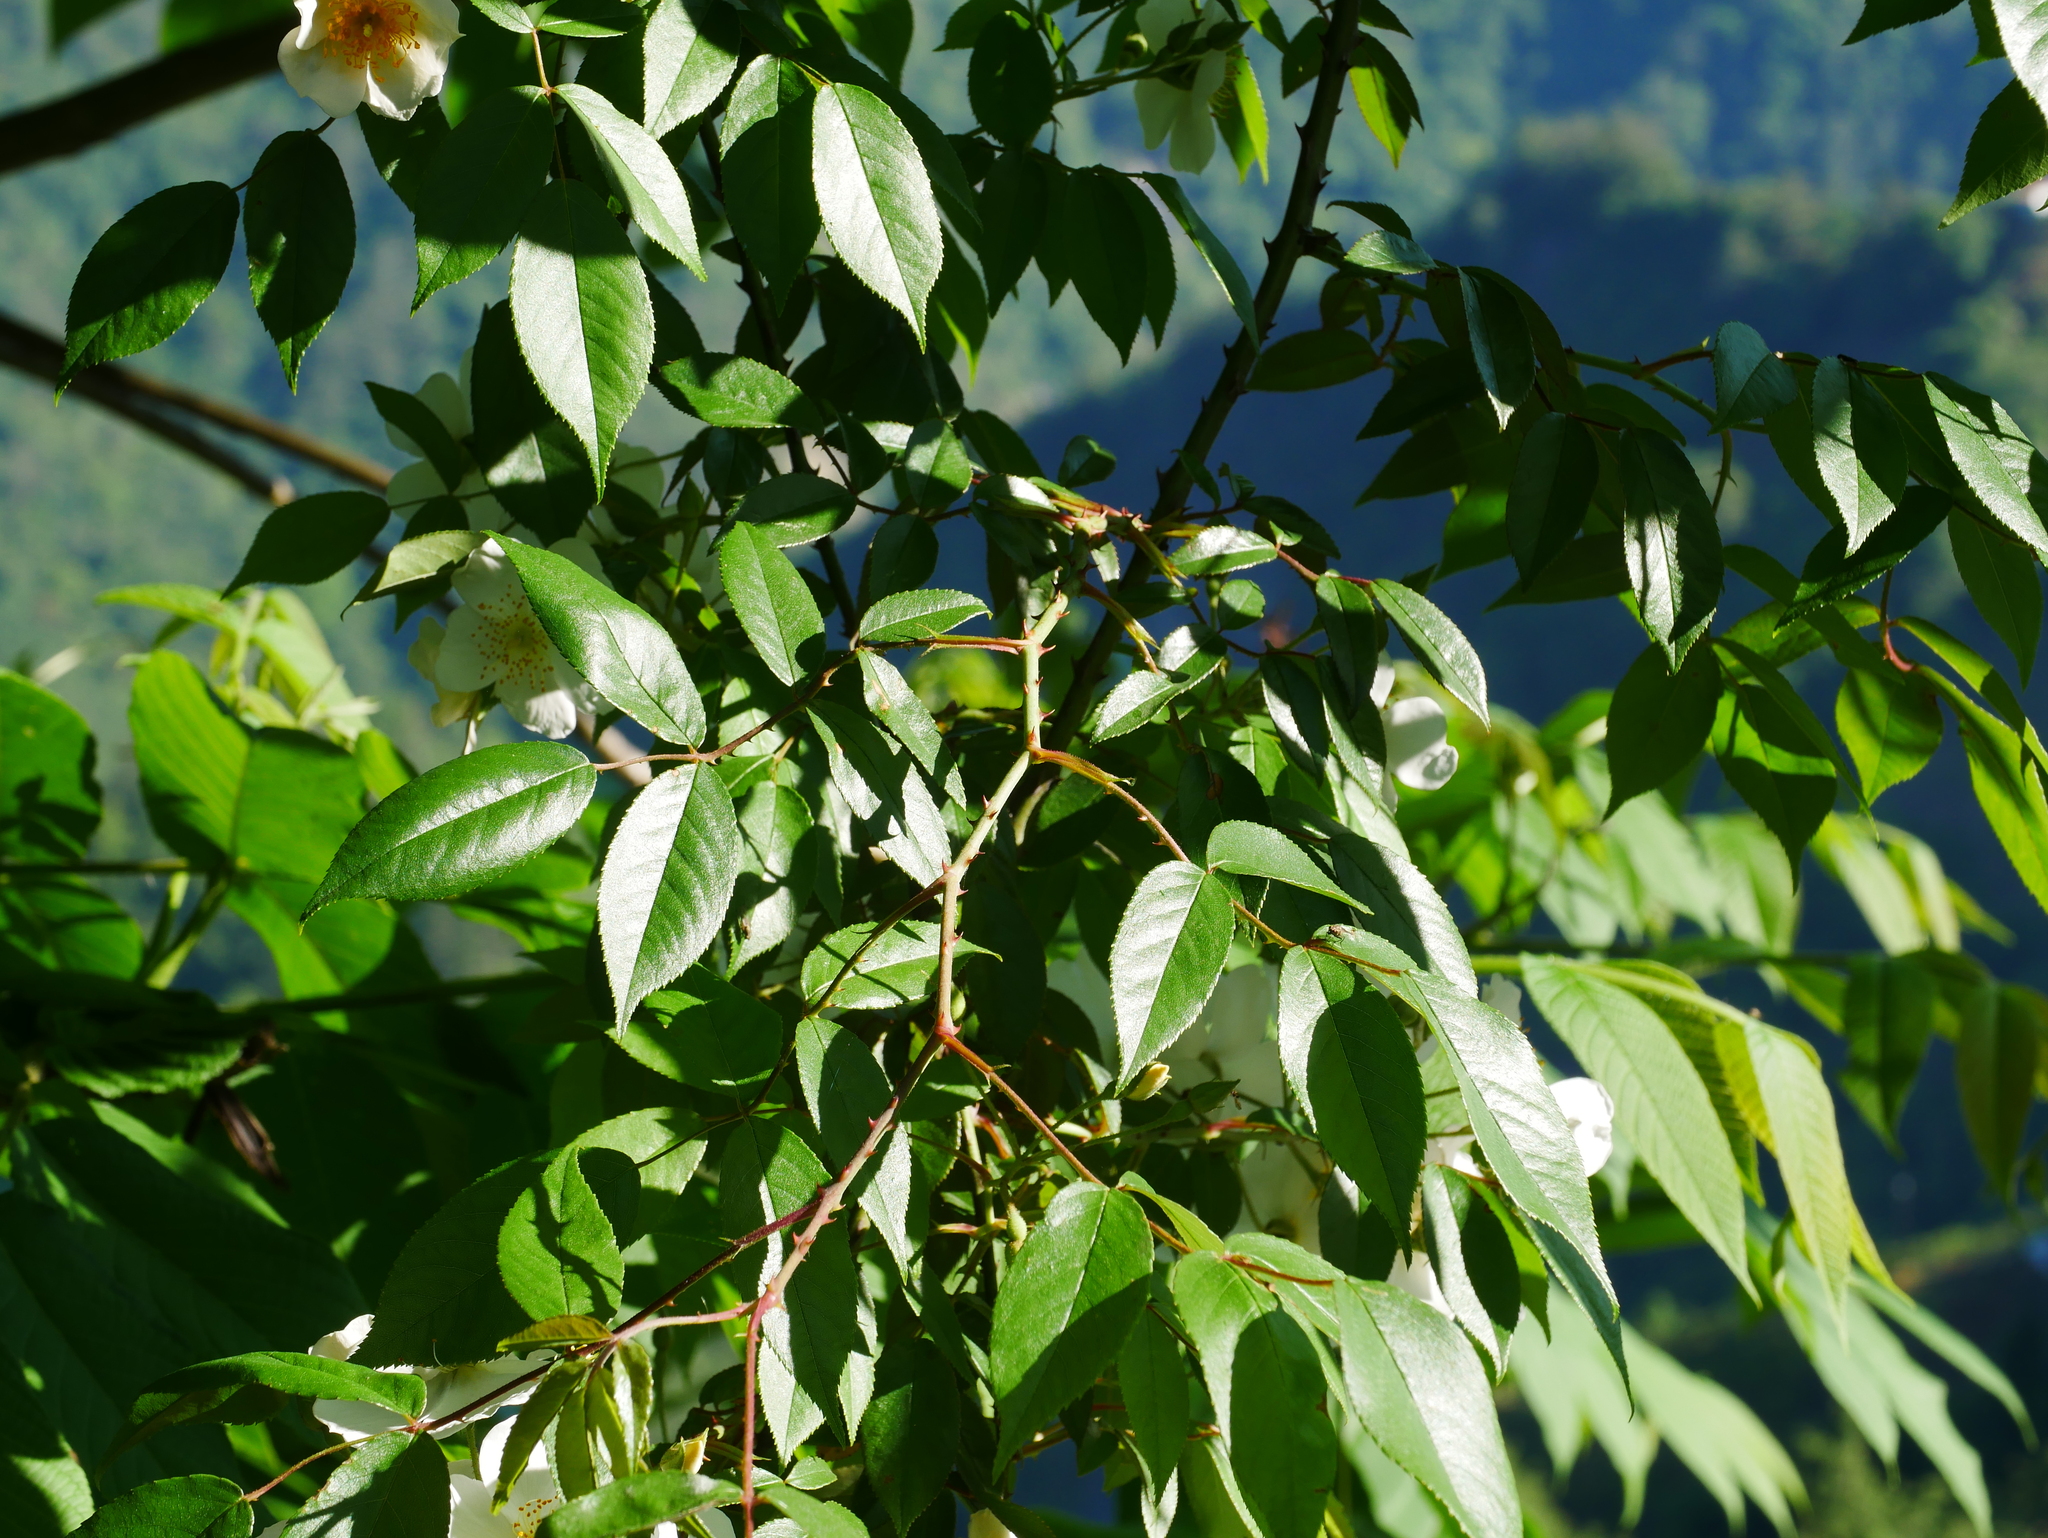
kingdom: Plantae
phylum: Tracheophyta
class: Magnoliopsida
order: Rosales
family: Rosaceae
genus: Rosa
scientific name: Rosa sambucina
